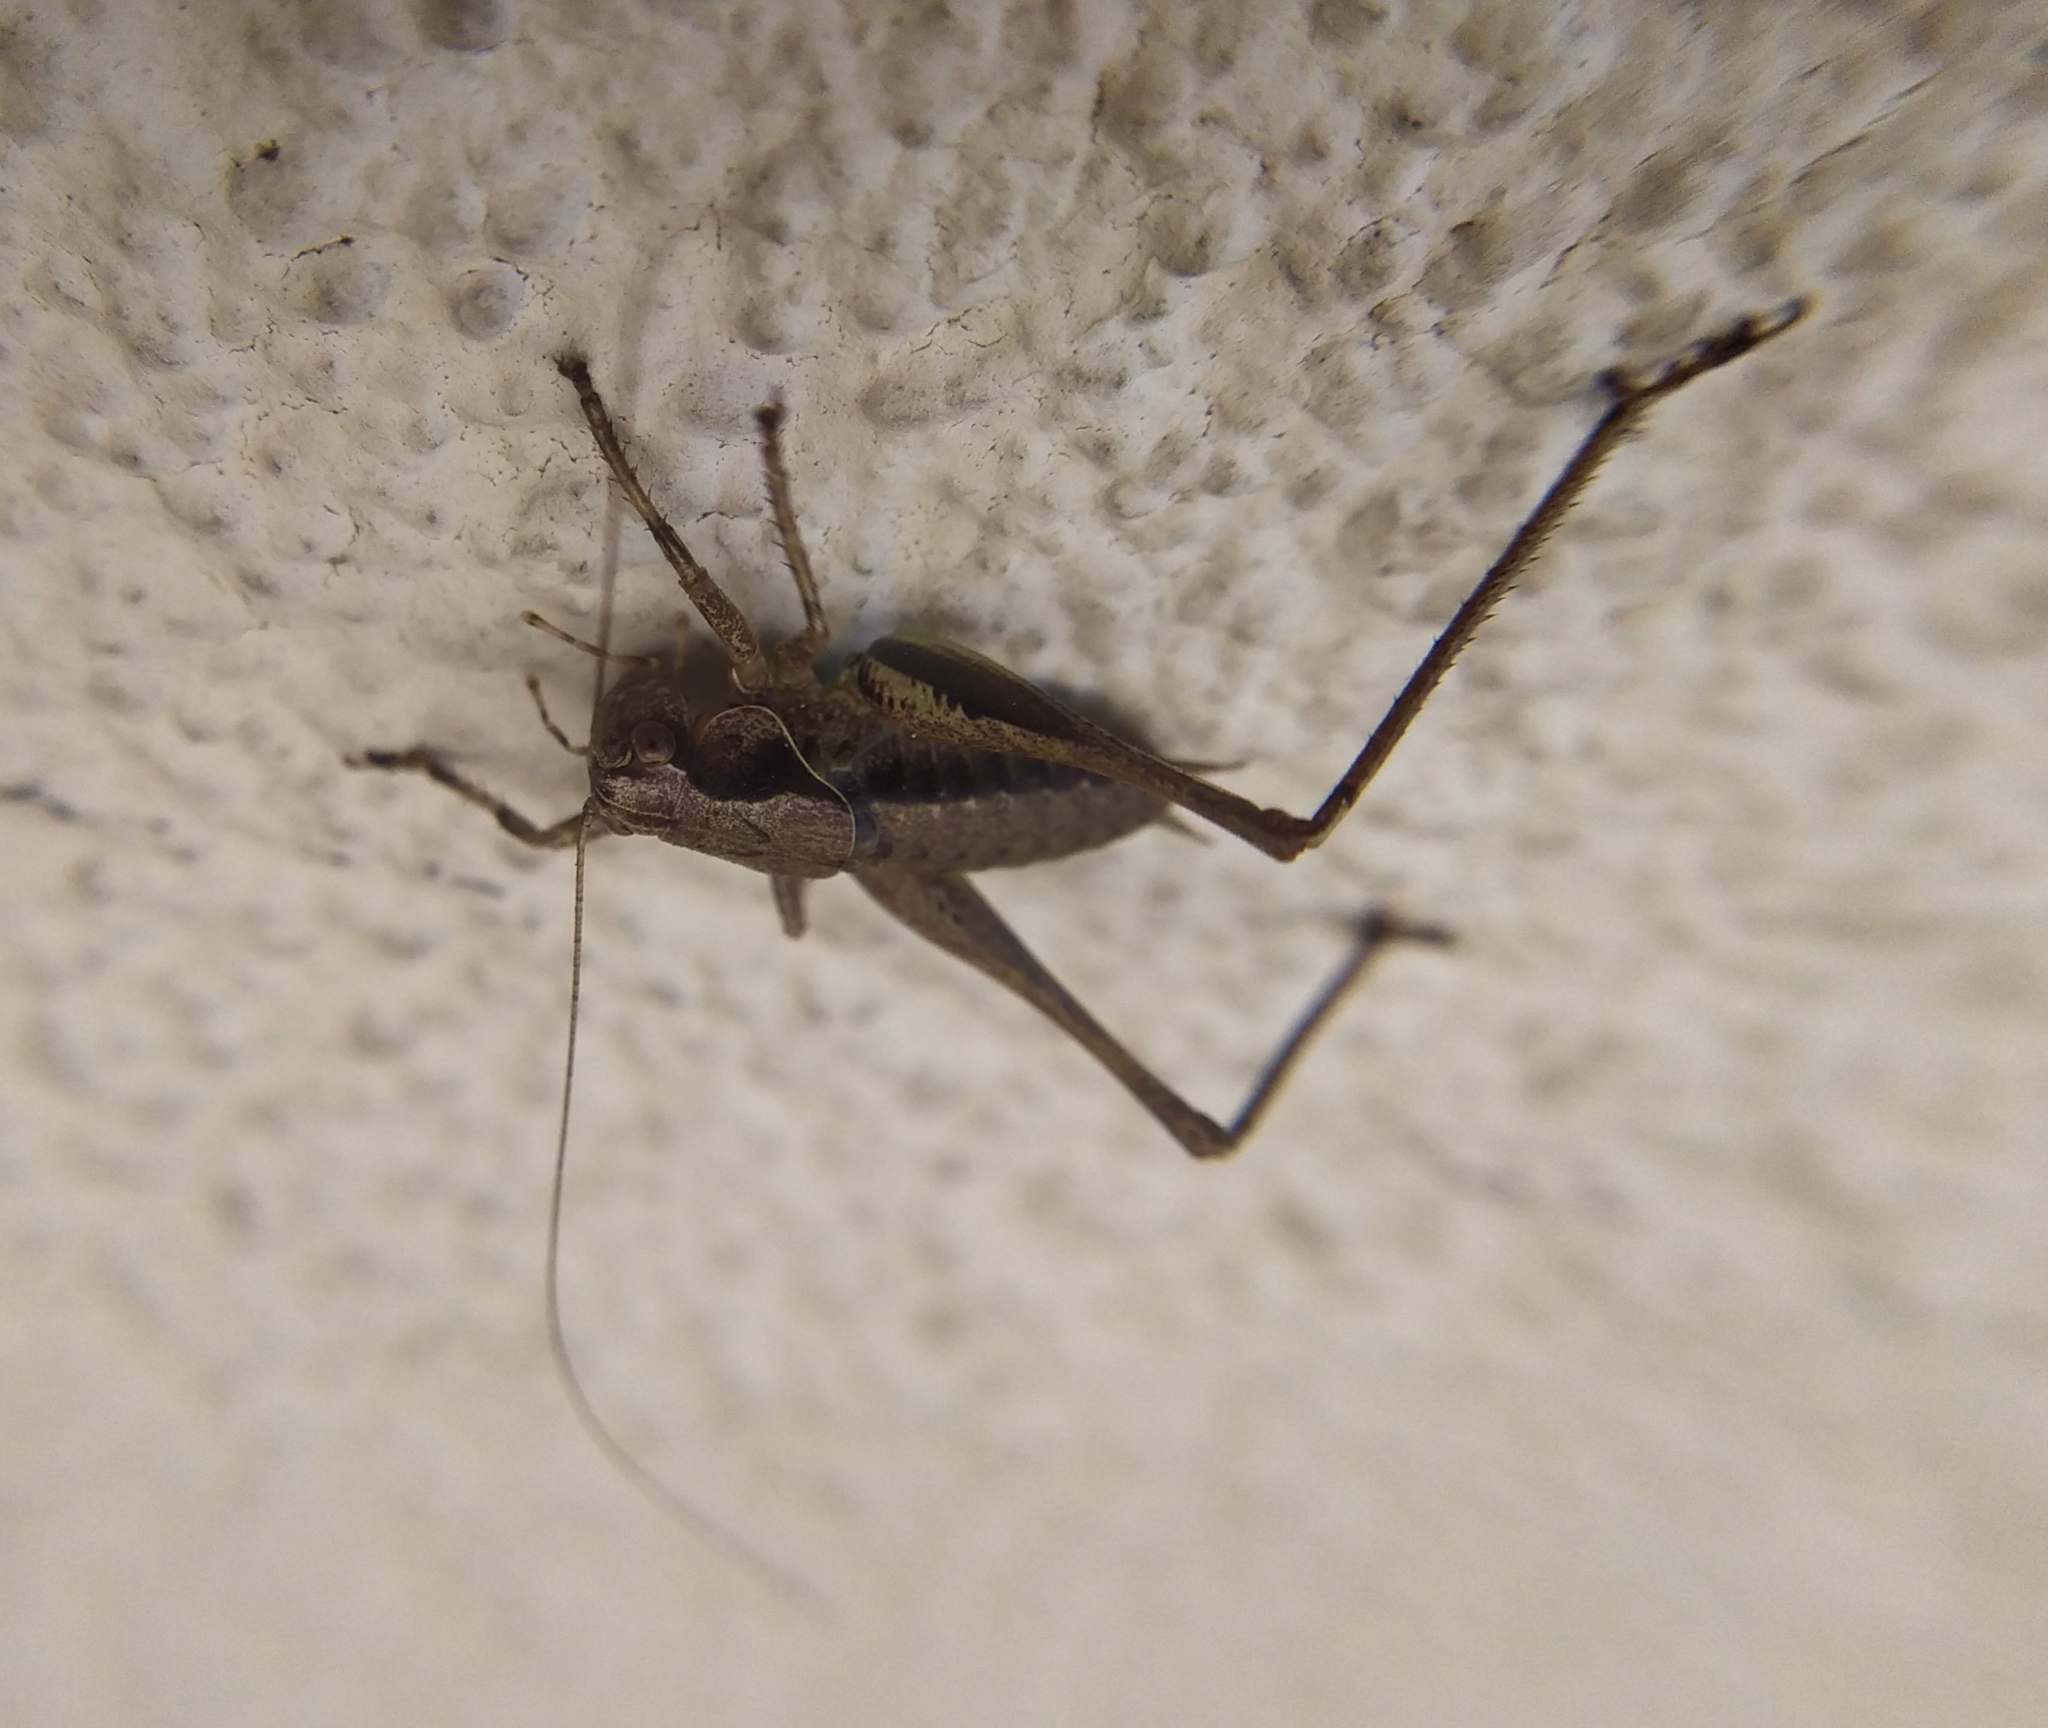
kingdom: Animalia
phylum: Arthropoda
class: Insecta
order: Orthoptera
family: Tettigoniidae
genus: Pholidoptera
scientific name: Pholidoptera griseoaptera
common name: Dark bush-cricket
